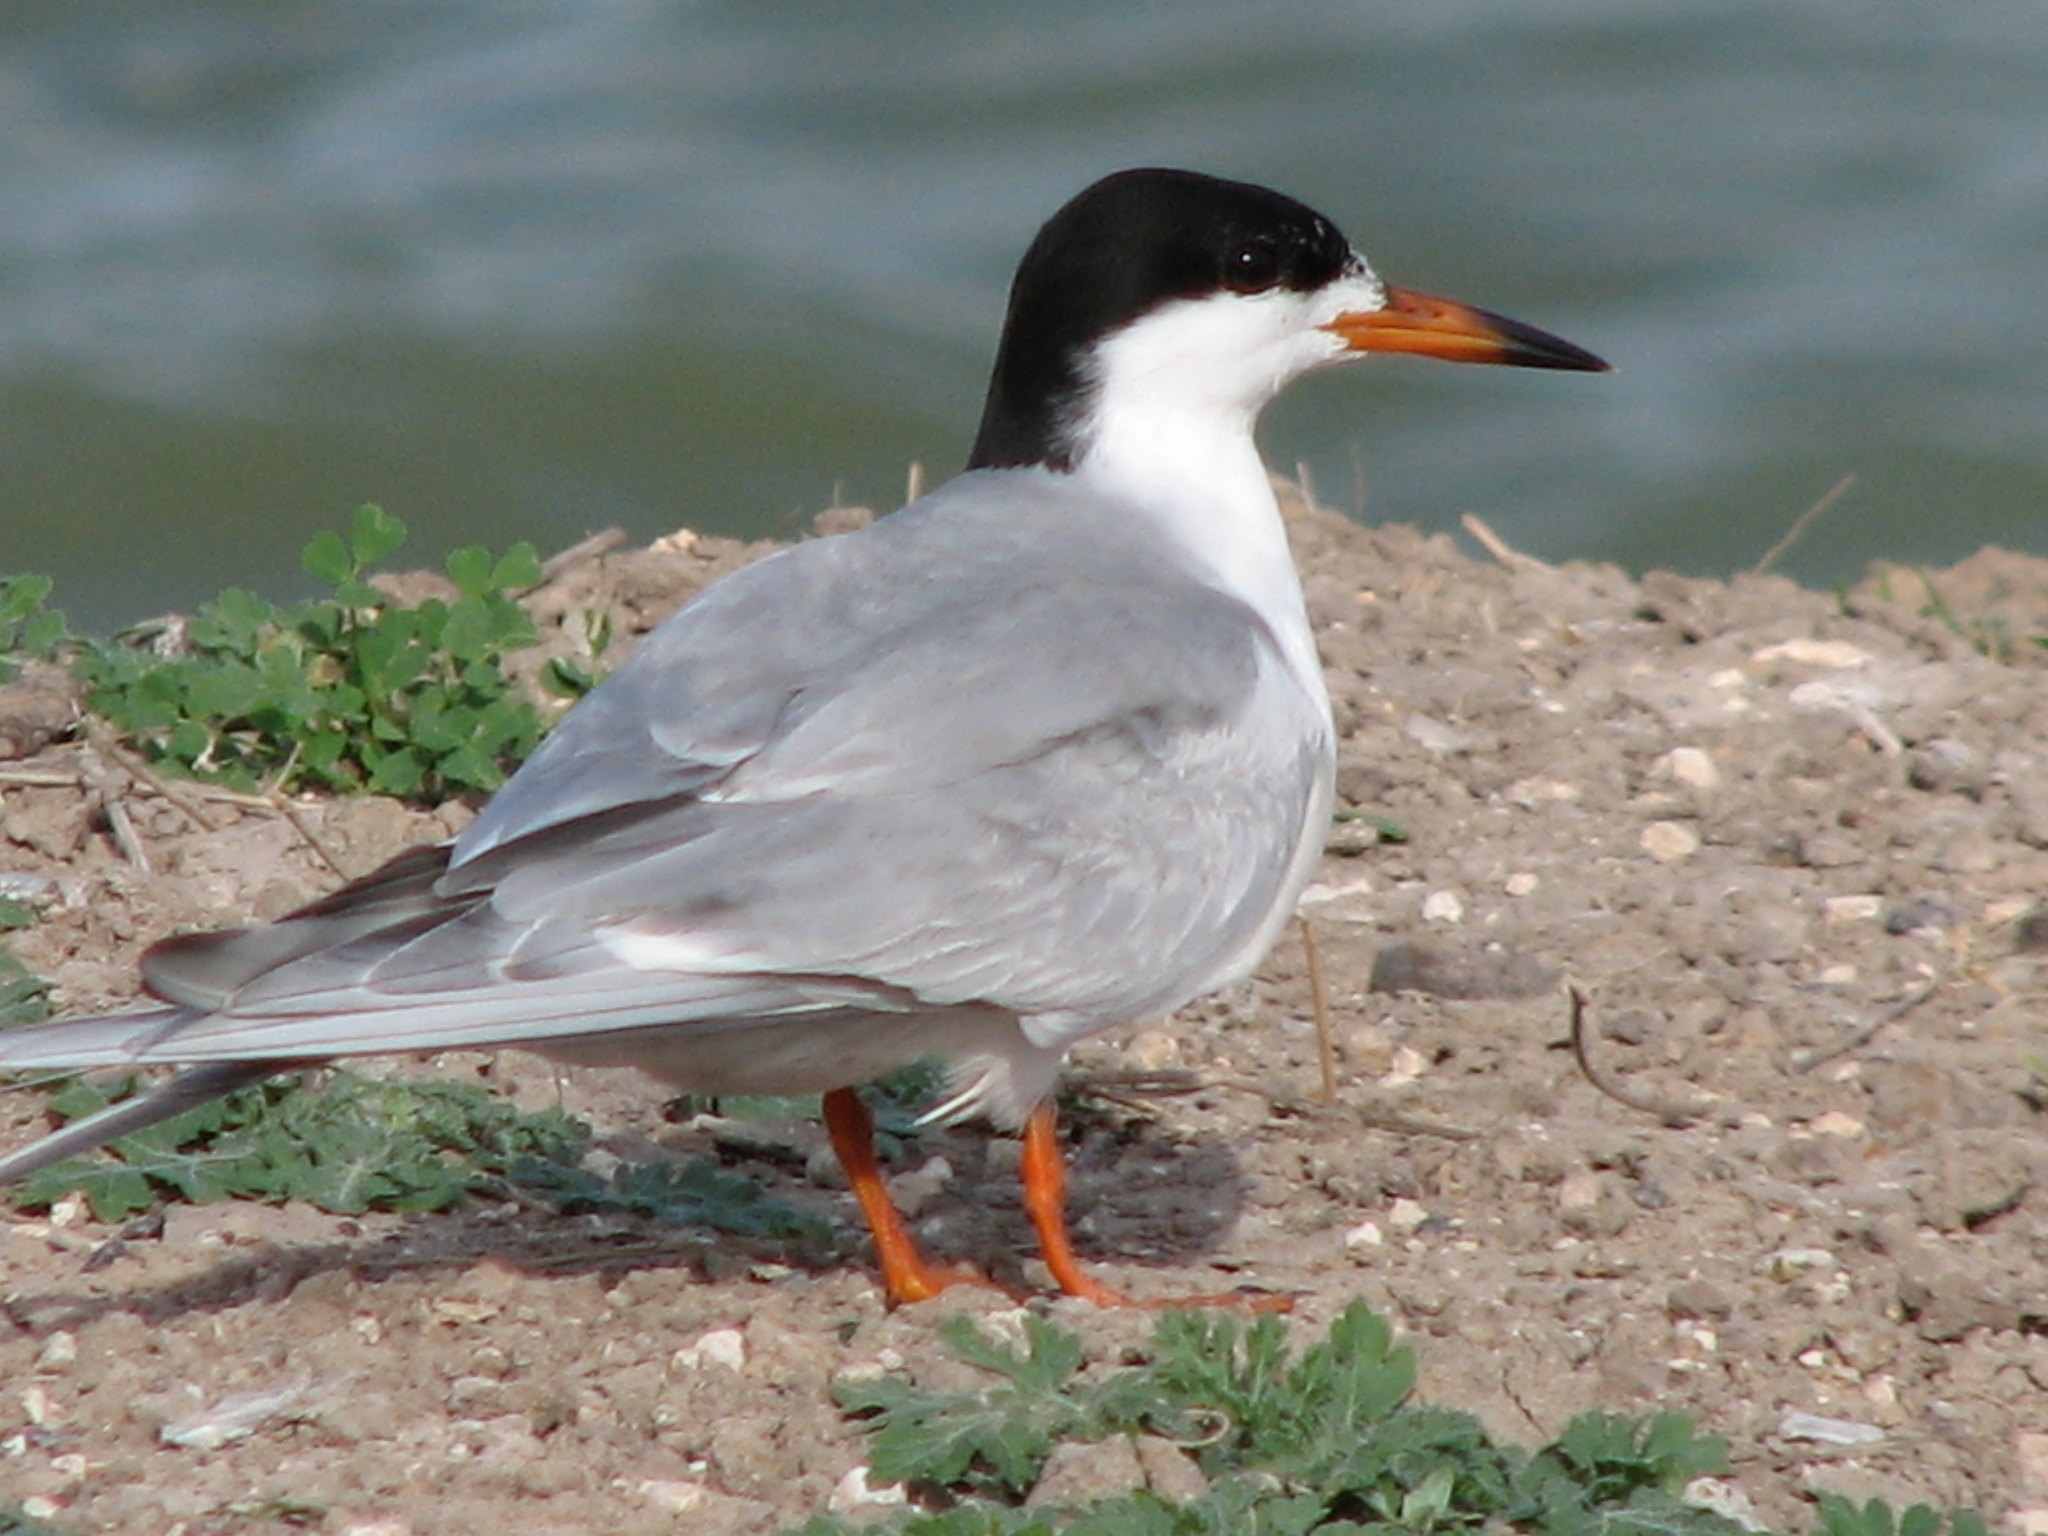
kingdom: Animalia
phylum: Chordata
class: Aves
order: Charadriiformes
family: Laridae
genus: Sterna
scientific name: Sterna forsteri
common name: Forster's tern
